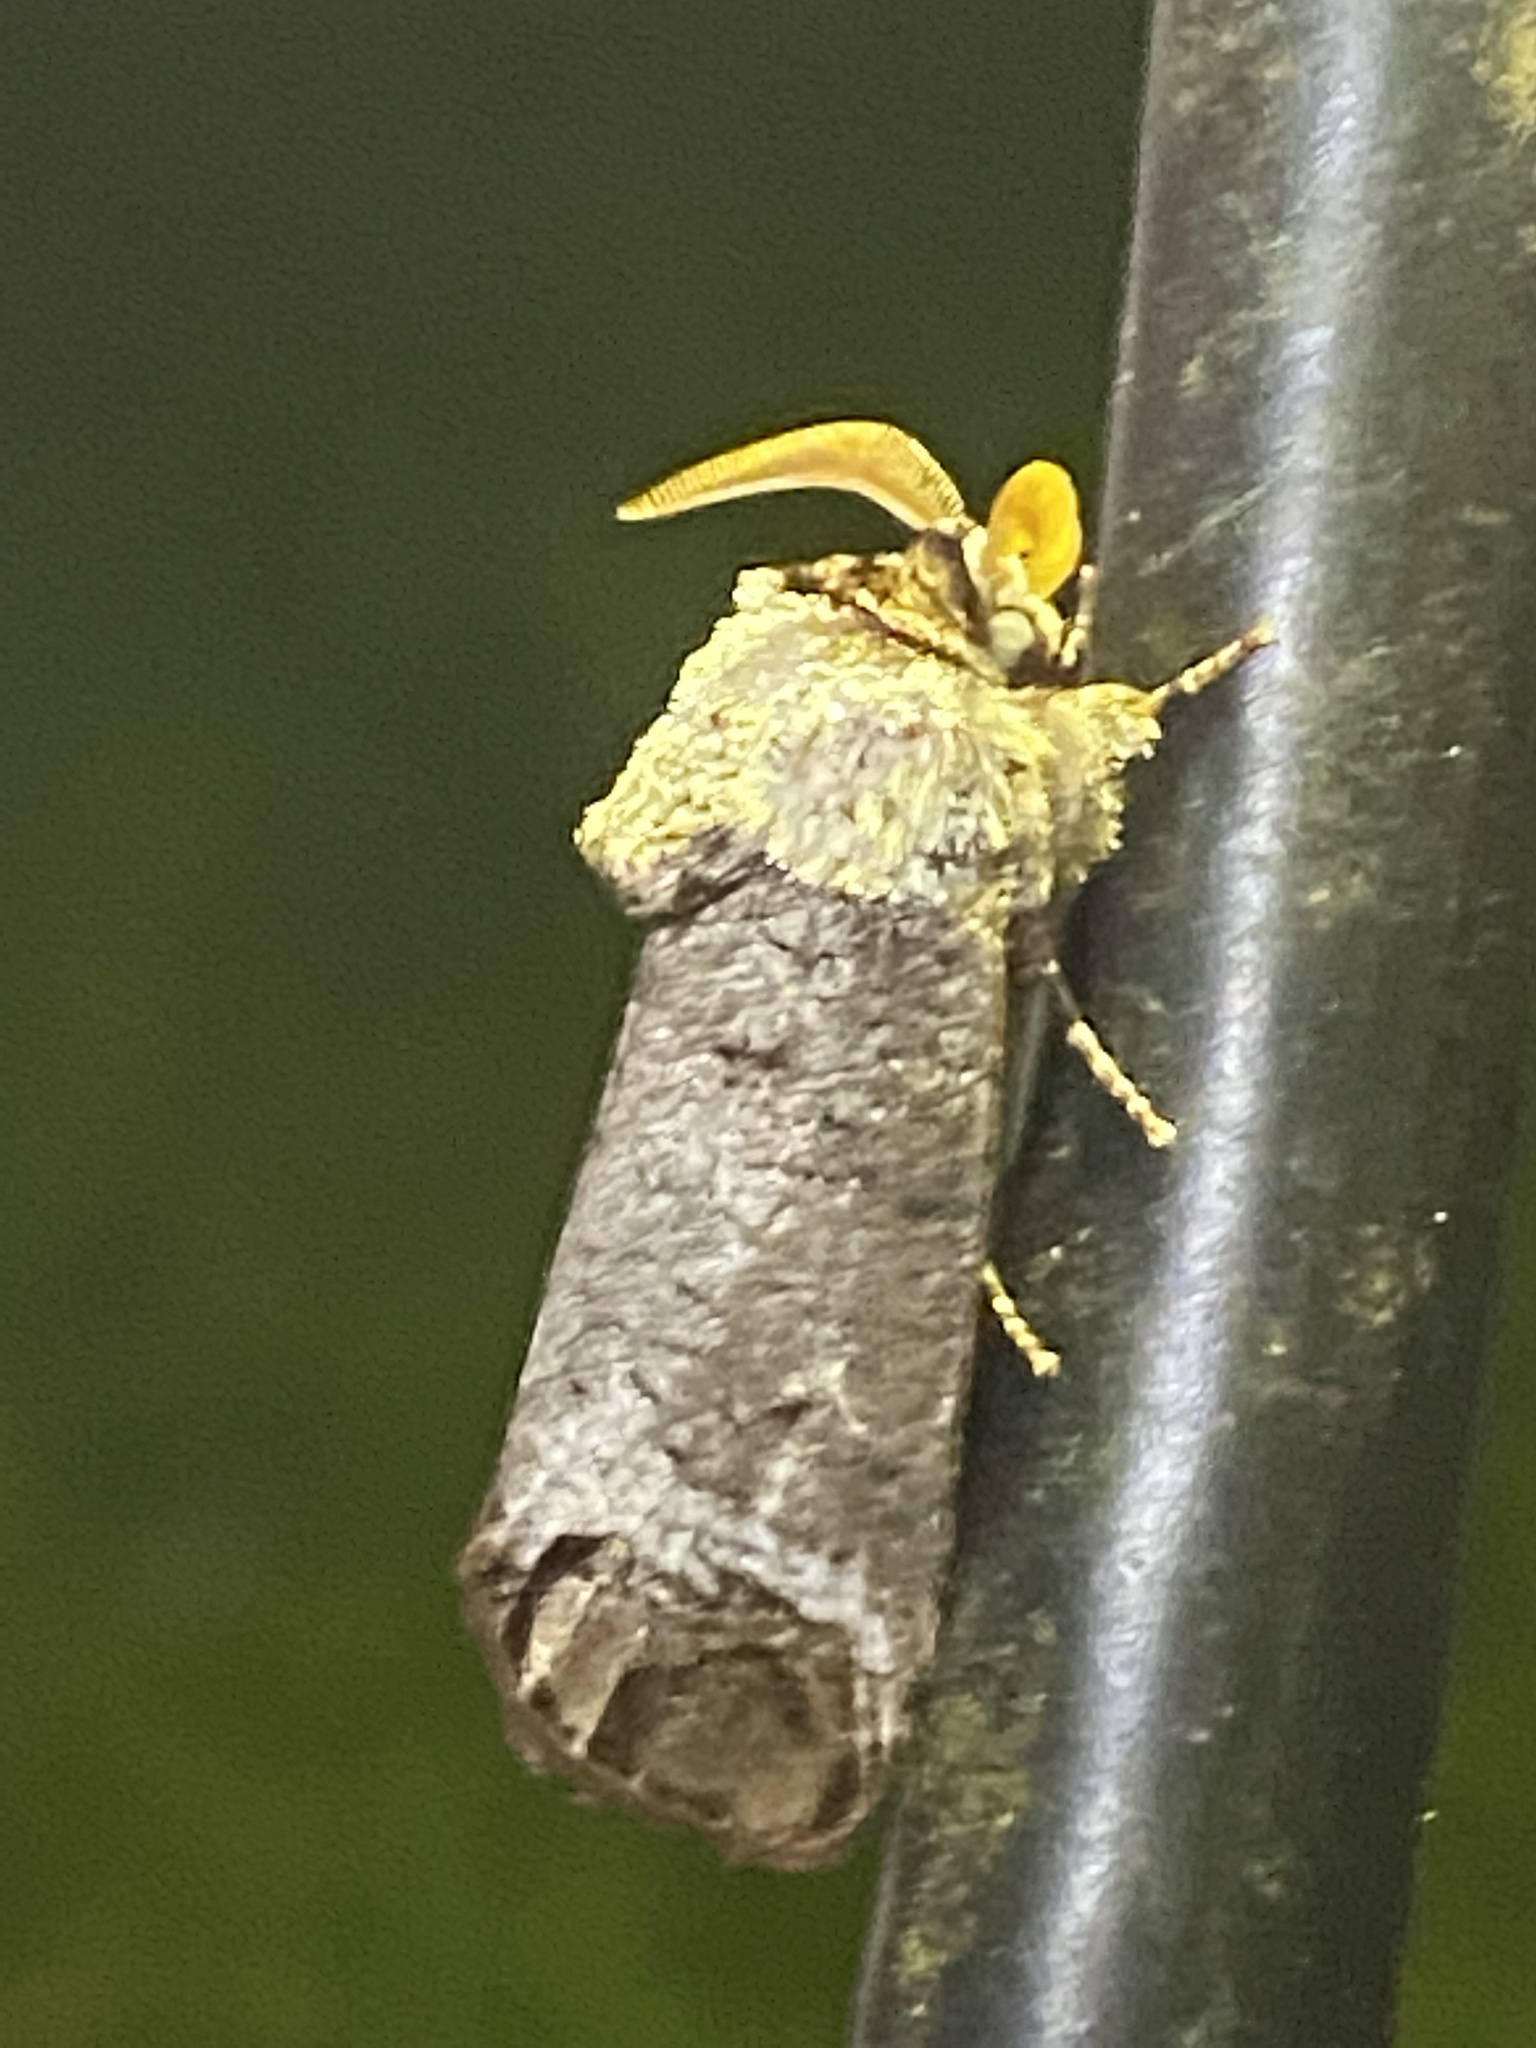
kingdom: Animalia
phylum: Arthropoda
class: Insecta
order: Lepidoptera
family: Cossidae
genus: Cossula
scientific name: Cossula magnifica
